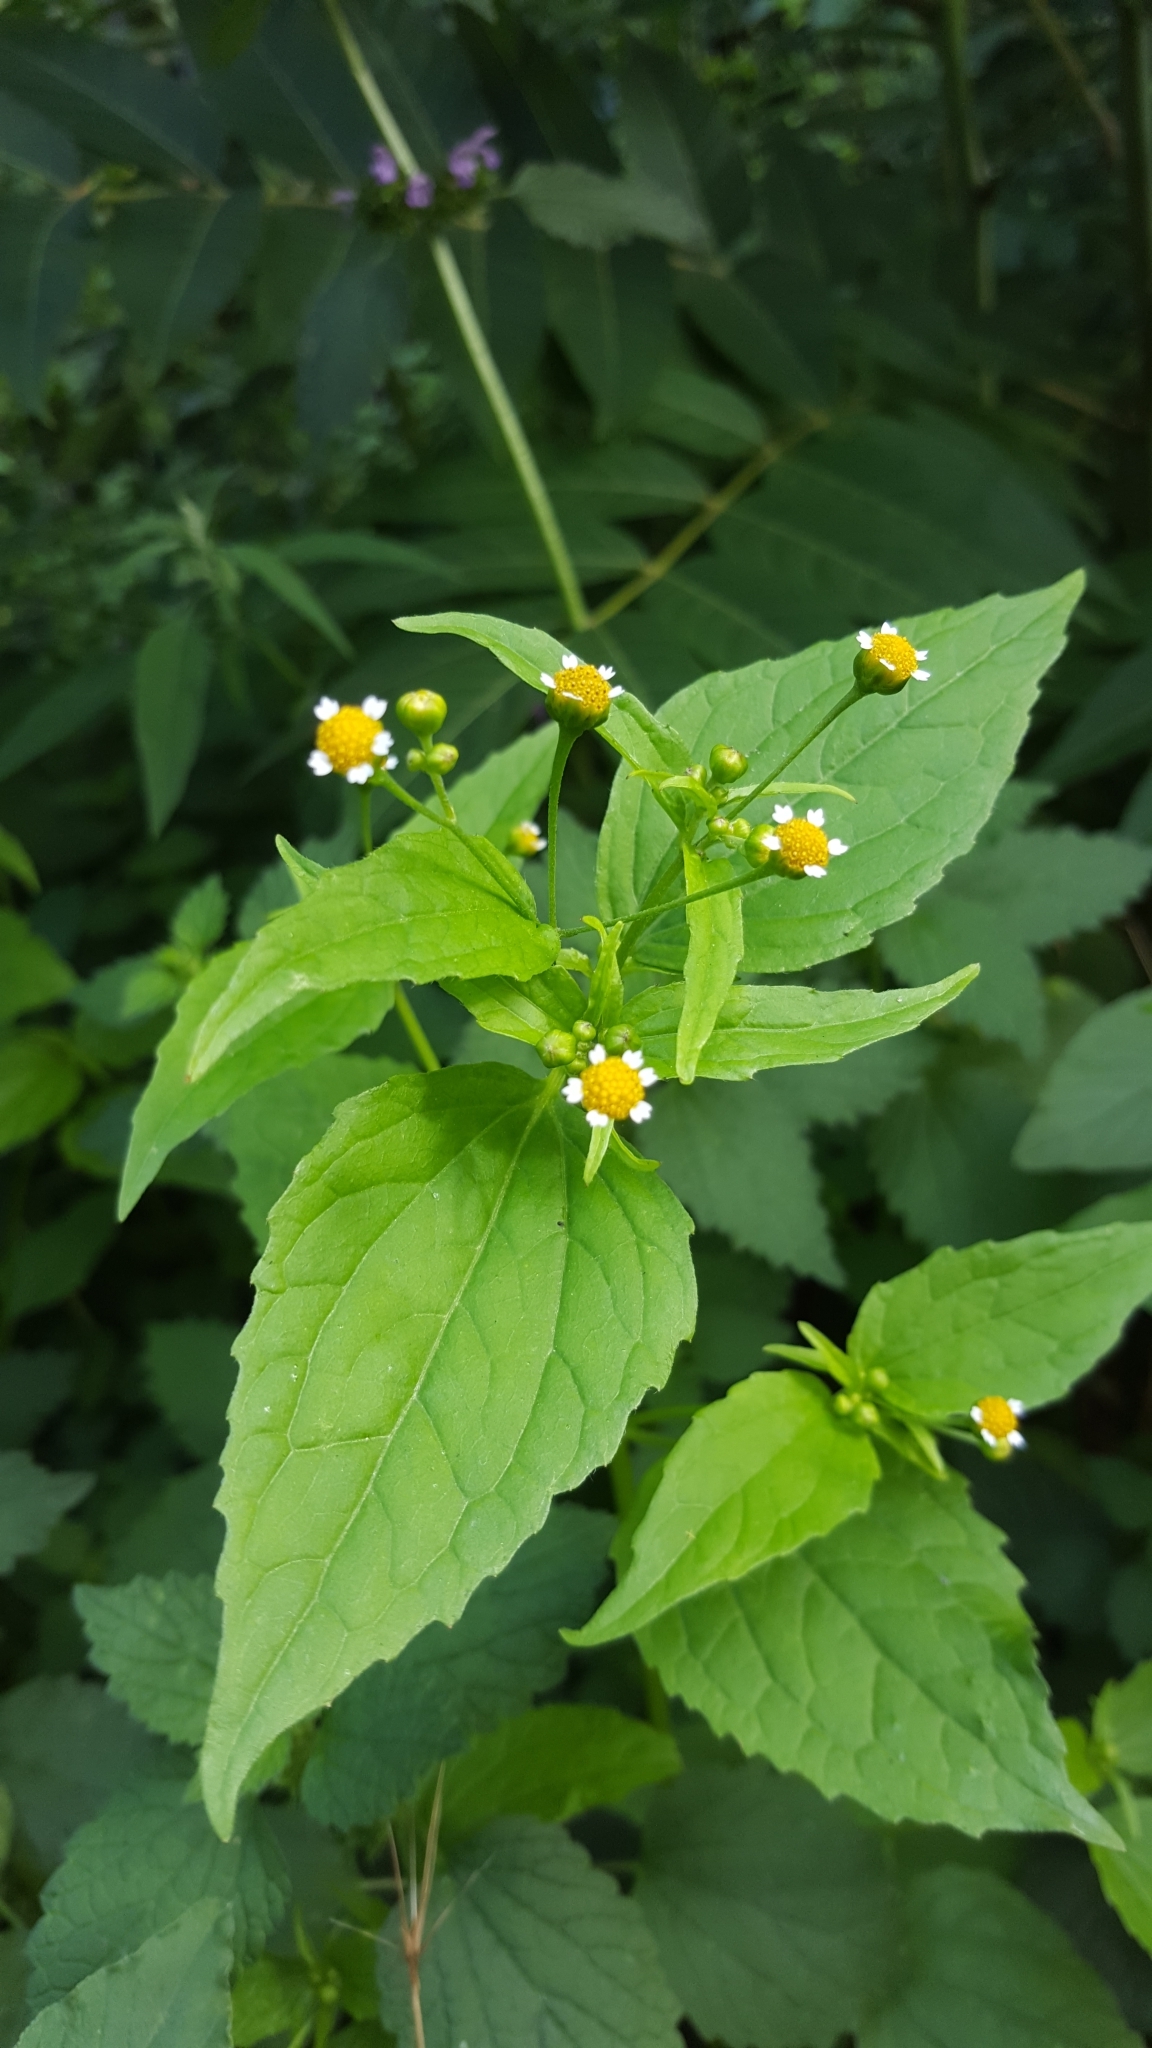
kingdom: Plantae
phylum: Tracheophyta
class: Magnoliopsida
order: Asterales
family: Asteraceae
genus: Galinsoga
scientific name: Galinsoga parviflora
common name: Gallant soldier
